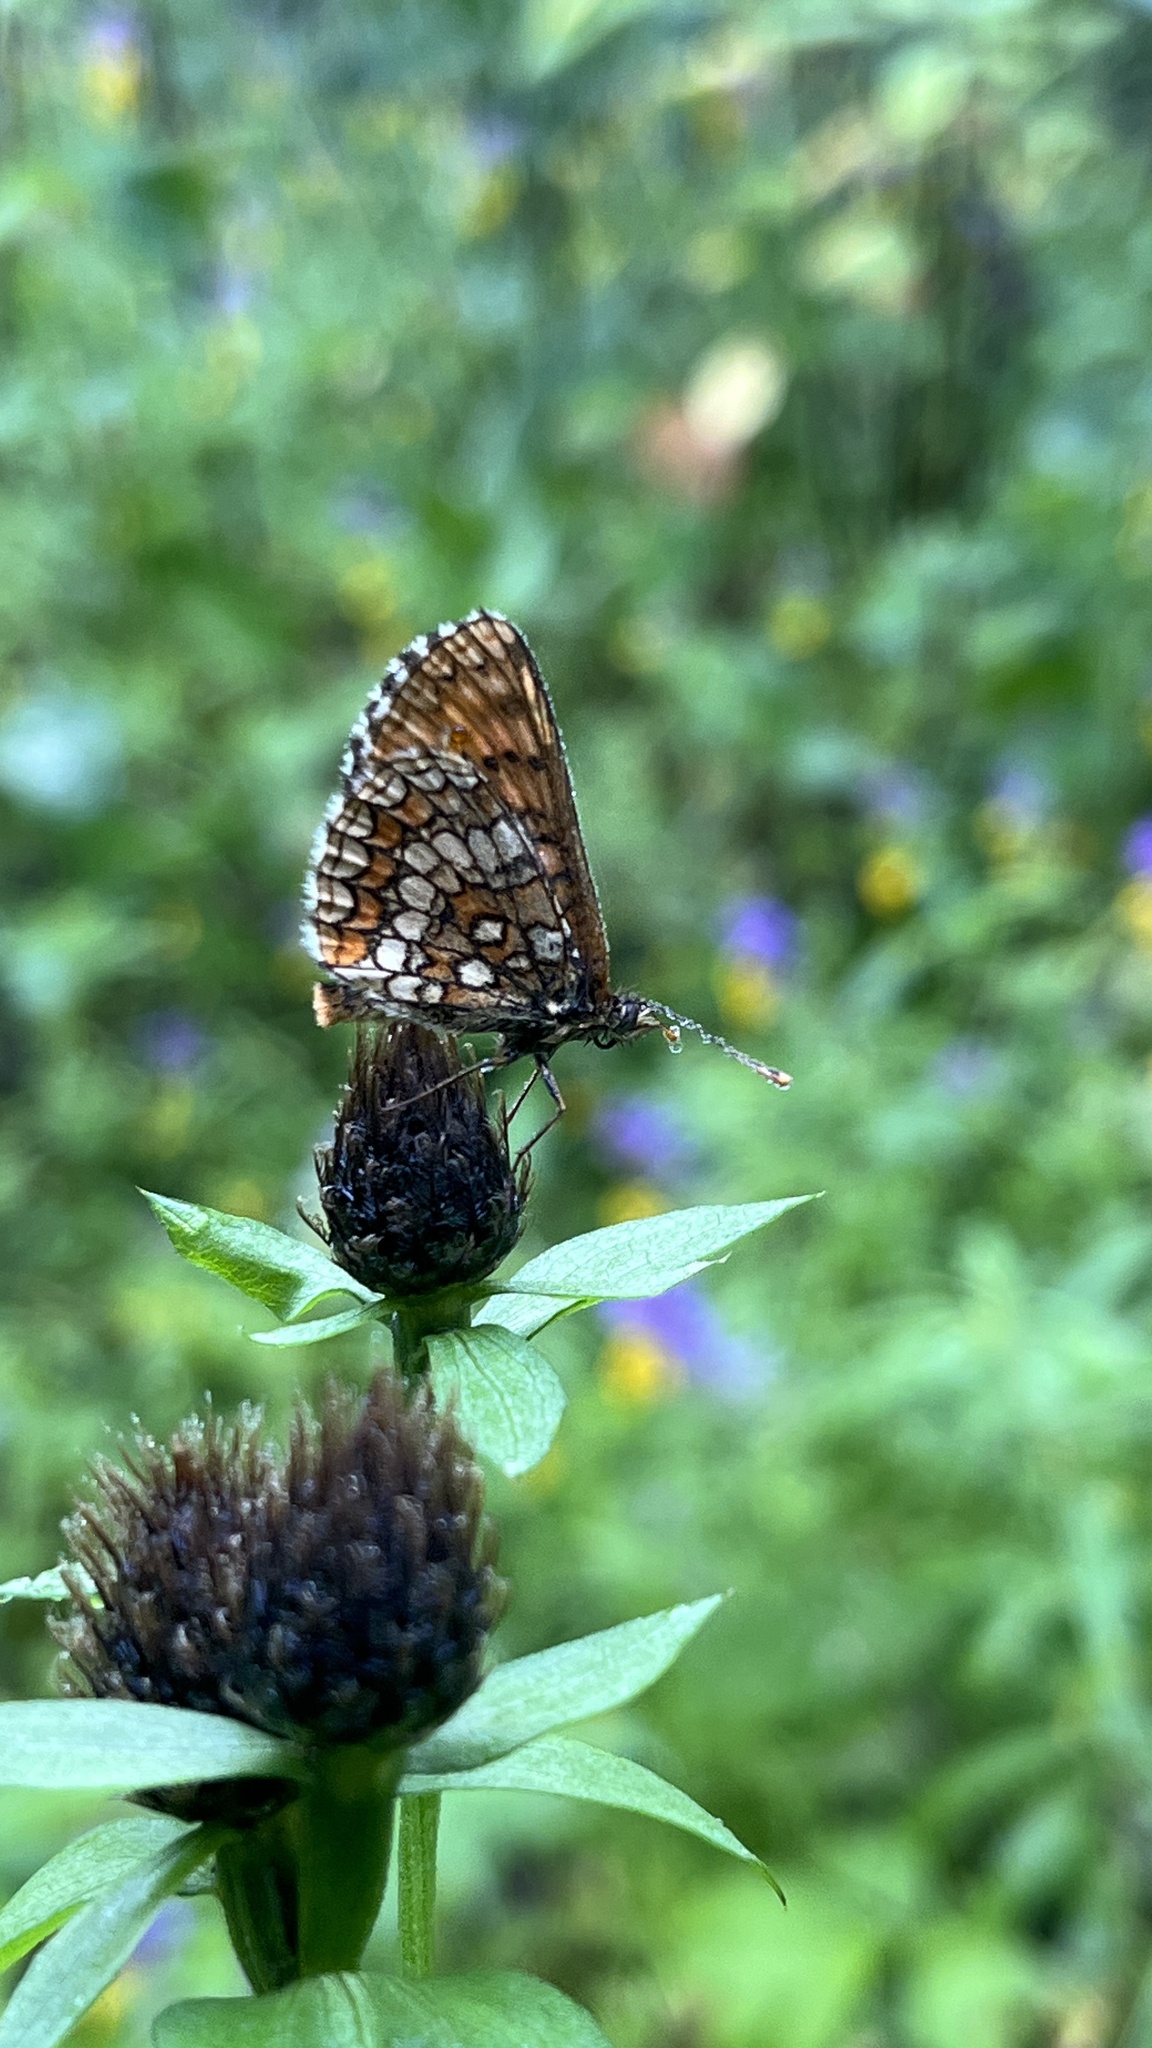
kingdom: Animalia
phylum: Arthropoda
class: Insecta
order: Lepidoptera
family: Nymphalidae
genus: Melitaea
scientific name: Melitaea
